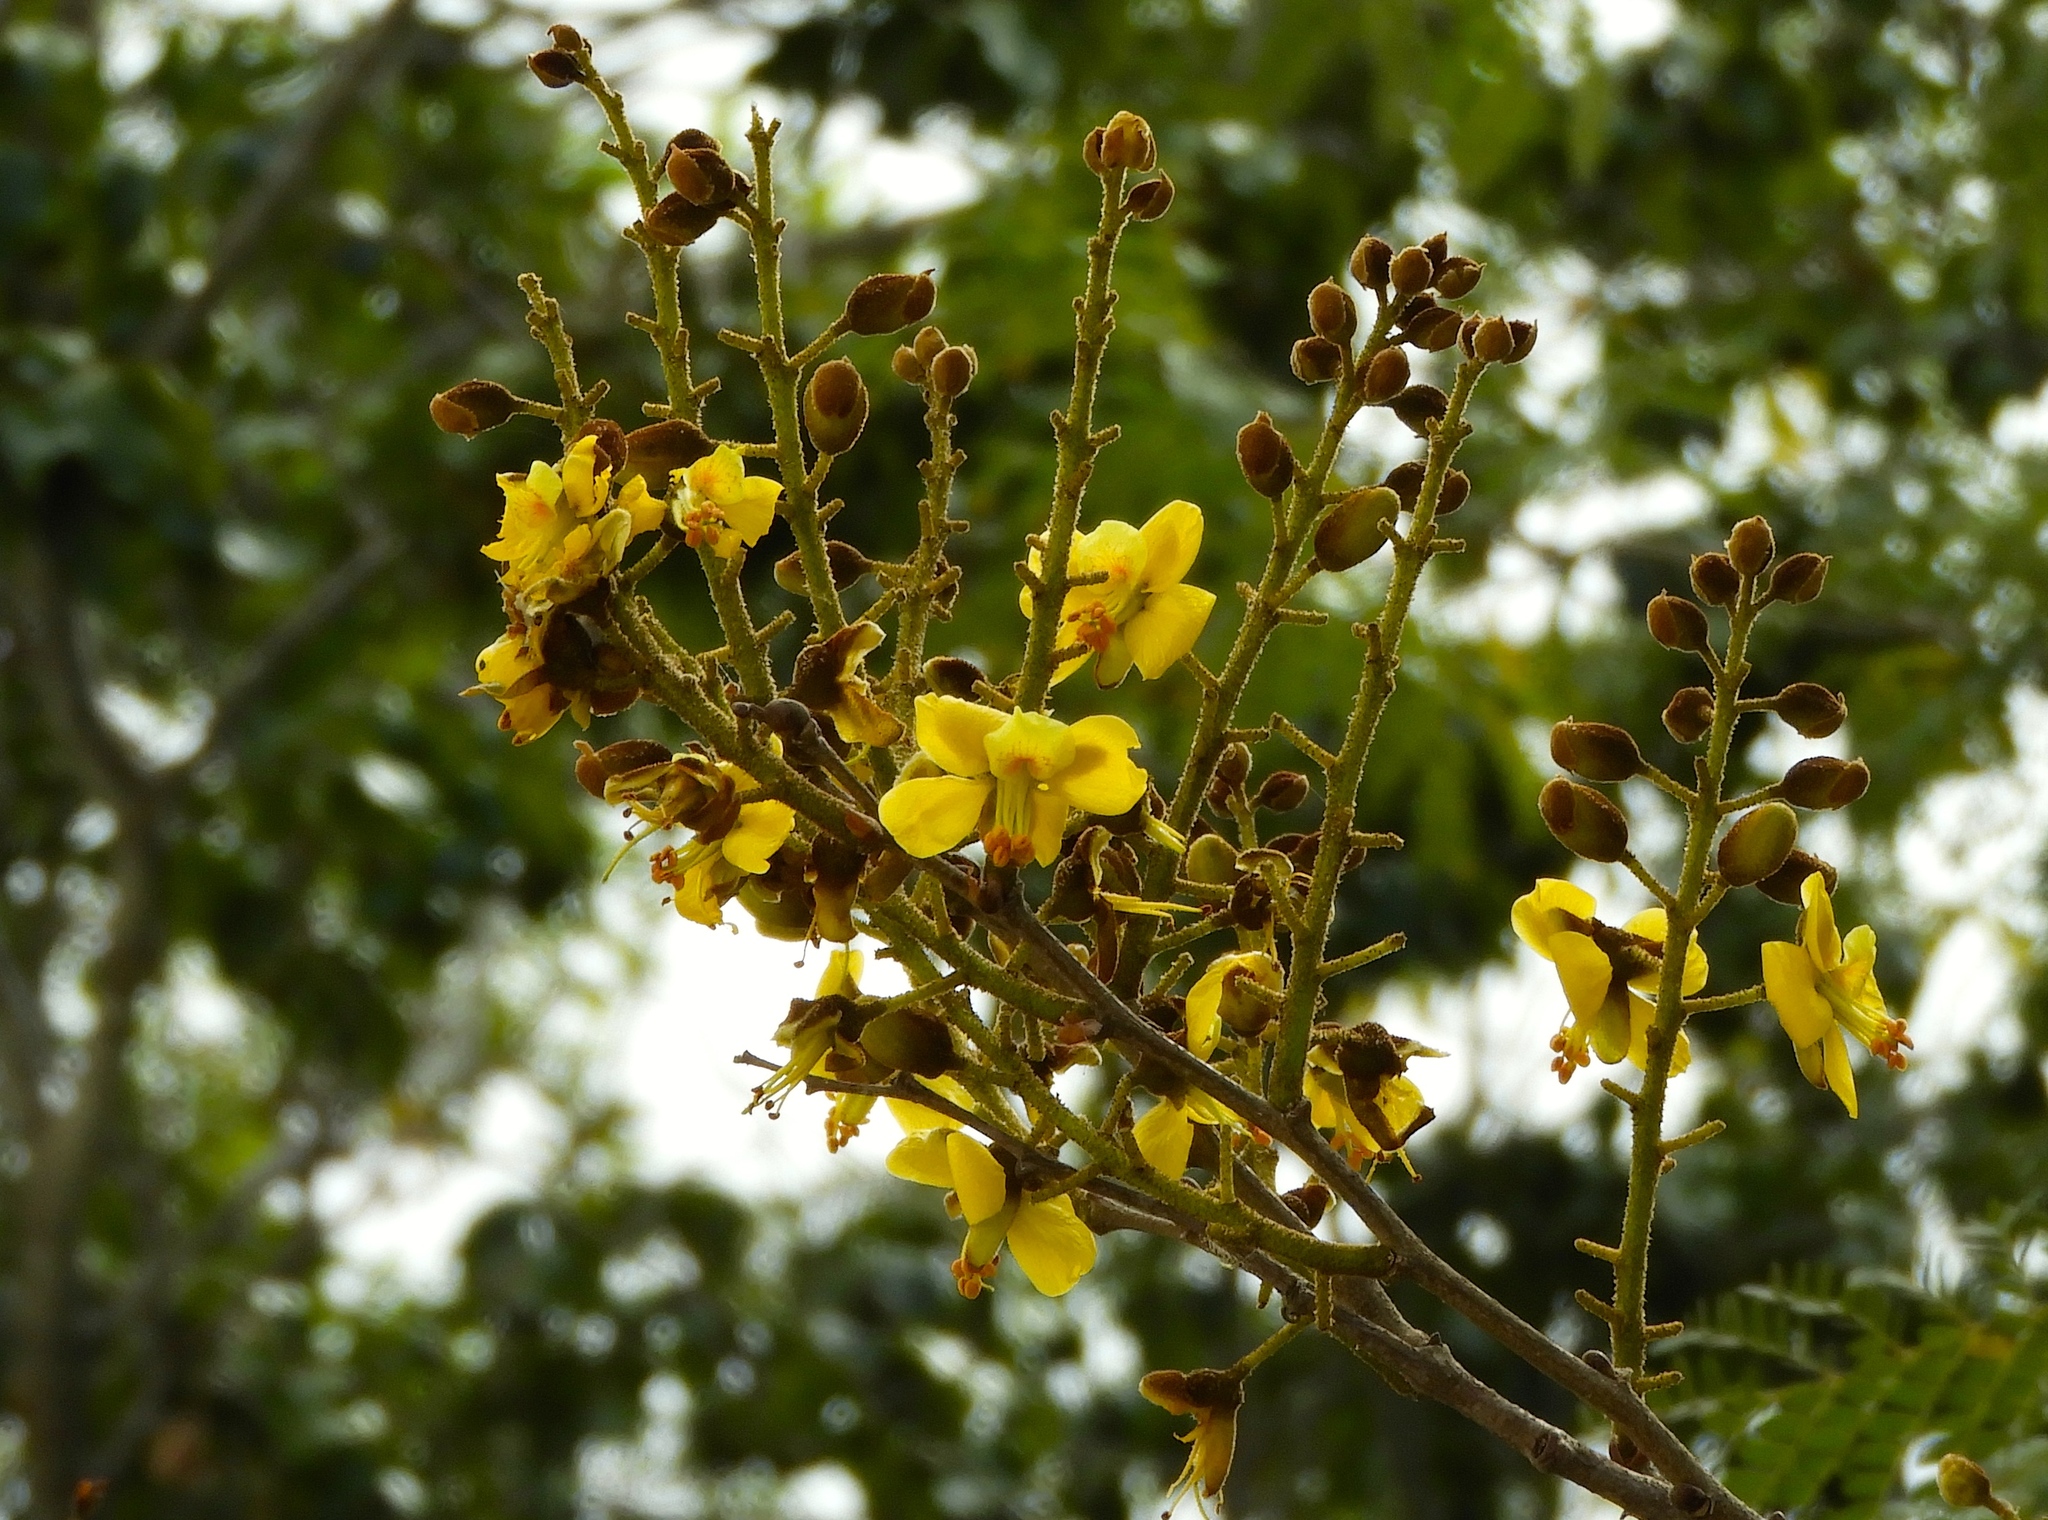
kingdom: Plantae
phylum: Tracheophyta
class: Magnoliopsida
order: Fabales
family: Fabaceae
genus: Cenostigma
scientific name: Cenostigma eriostachys
